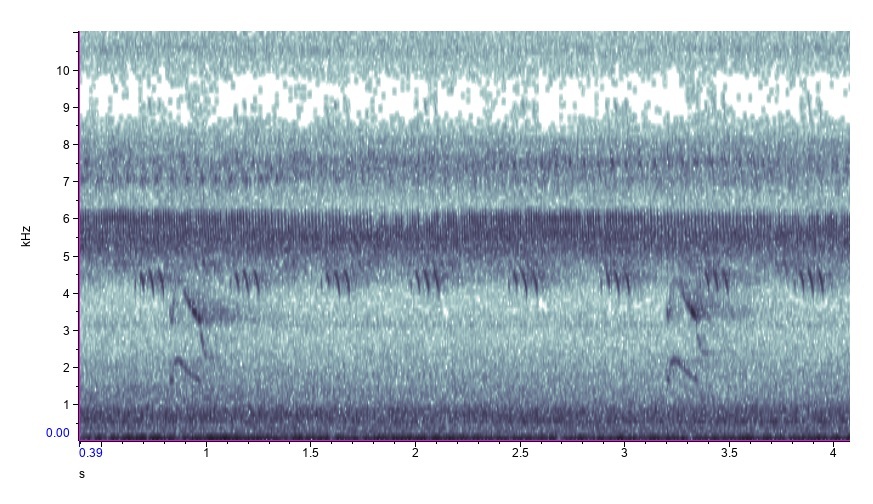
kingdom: Animalia
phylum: Chordata
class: Aves
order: Piciformes
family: Picidae
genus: Colaptes
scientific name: Colaptes auratus
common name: Northern flicker
